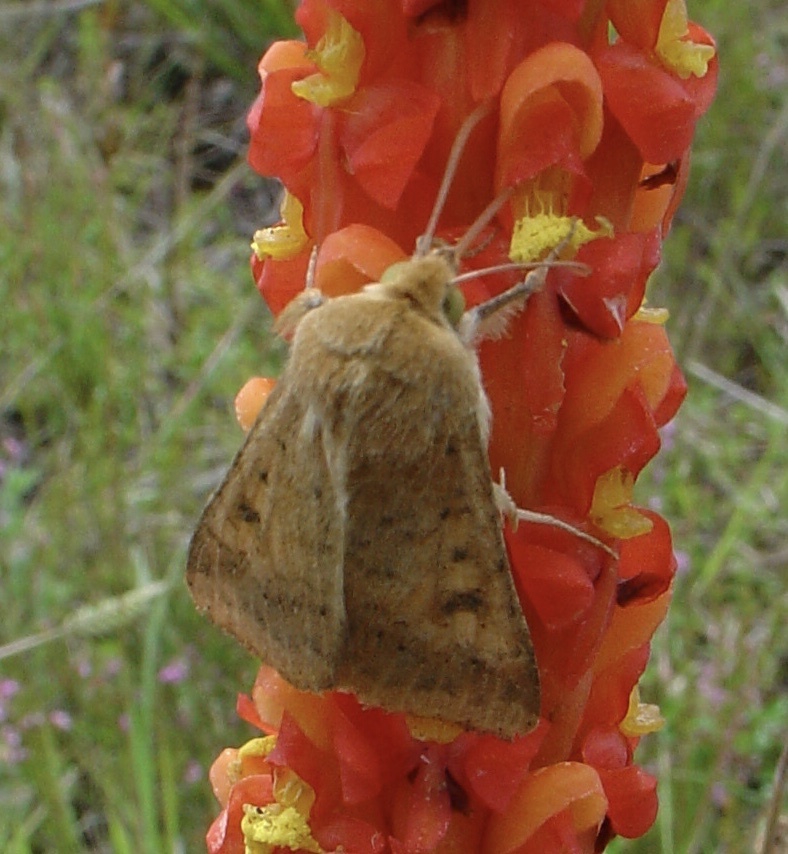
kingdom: Animalia
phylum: Arthropoda
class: Insecta
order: Lepidoptera
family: Noctuidae
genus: Helicoverpa
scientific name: Helicoverpa armigera
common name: Cotton bollworm
